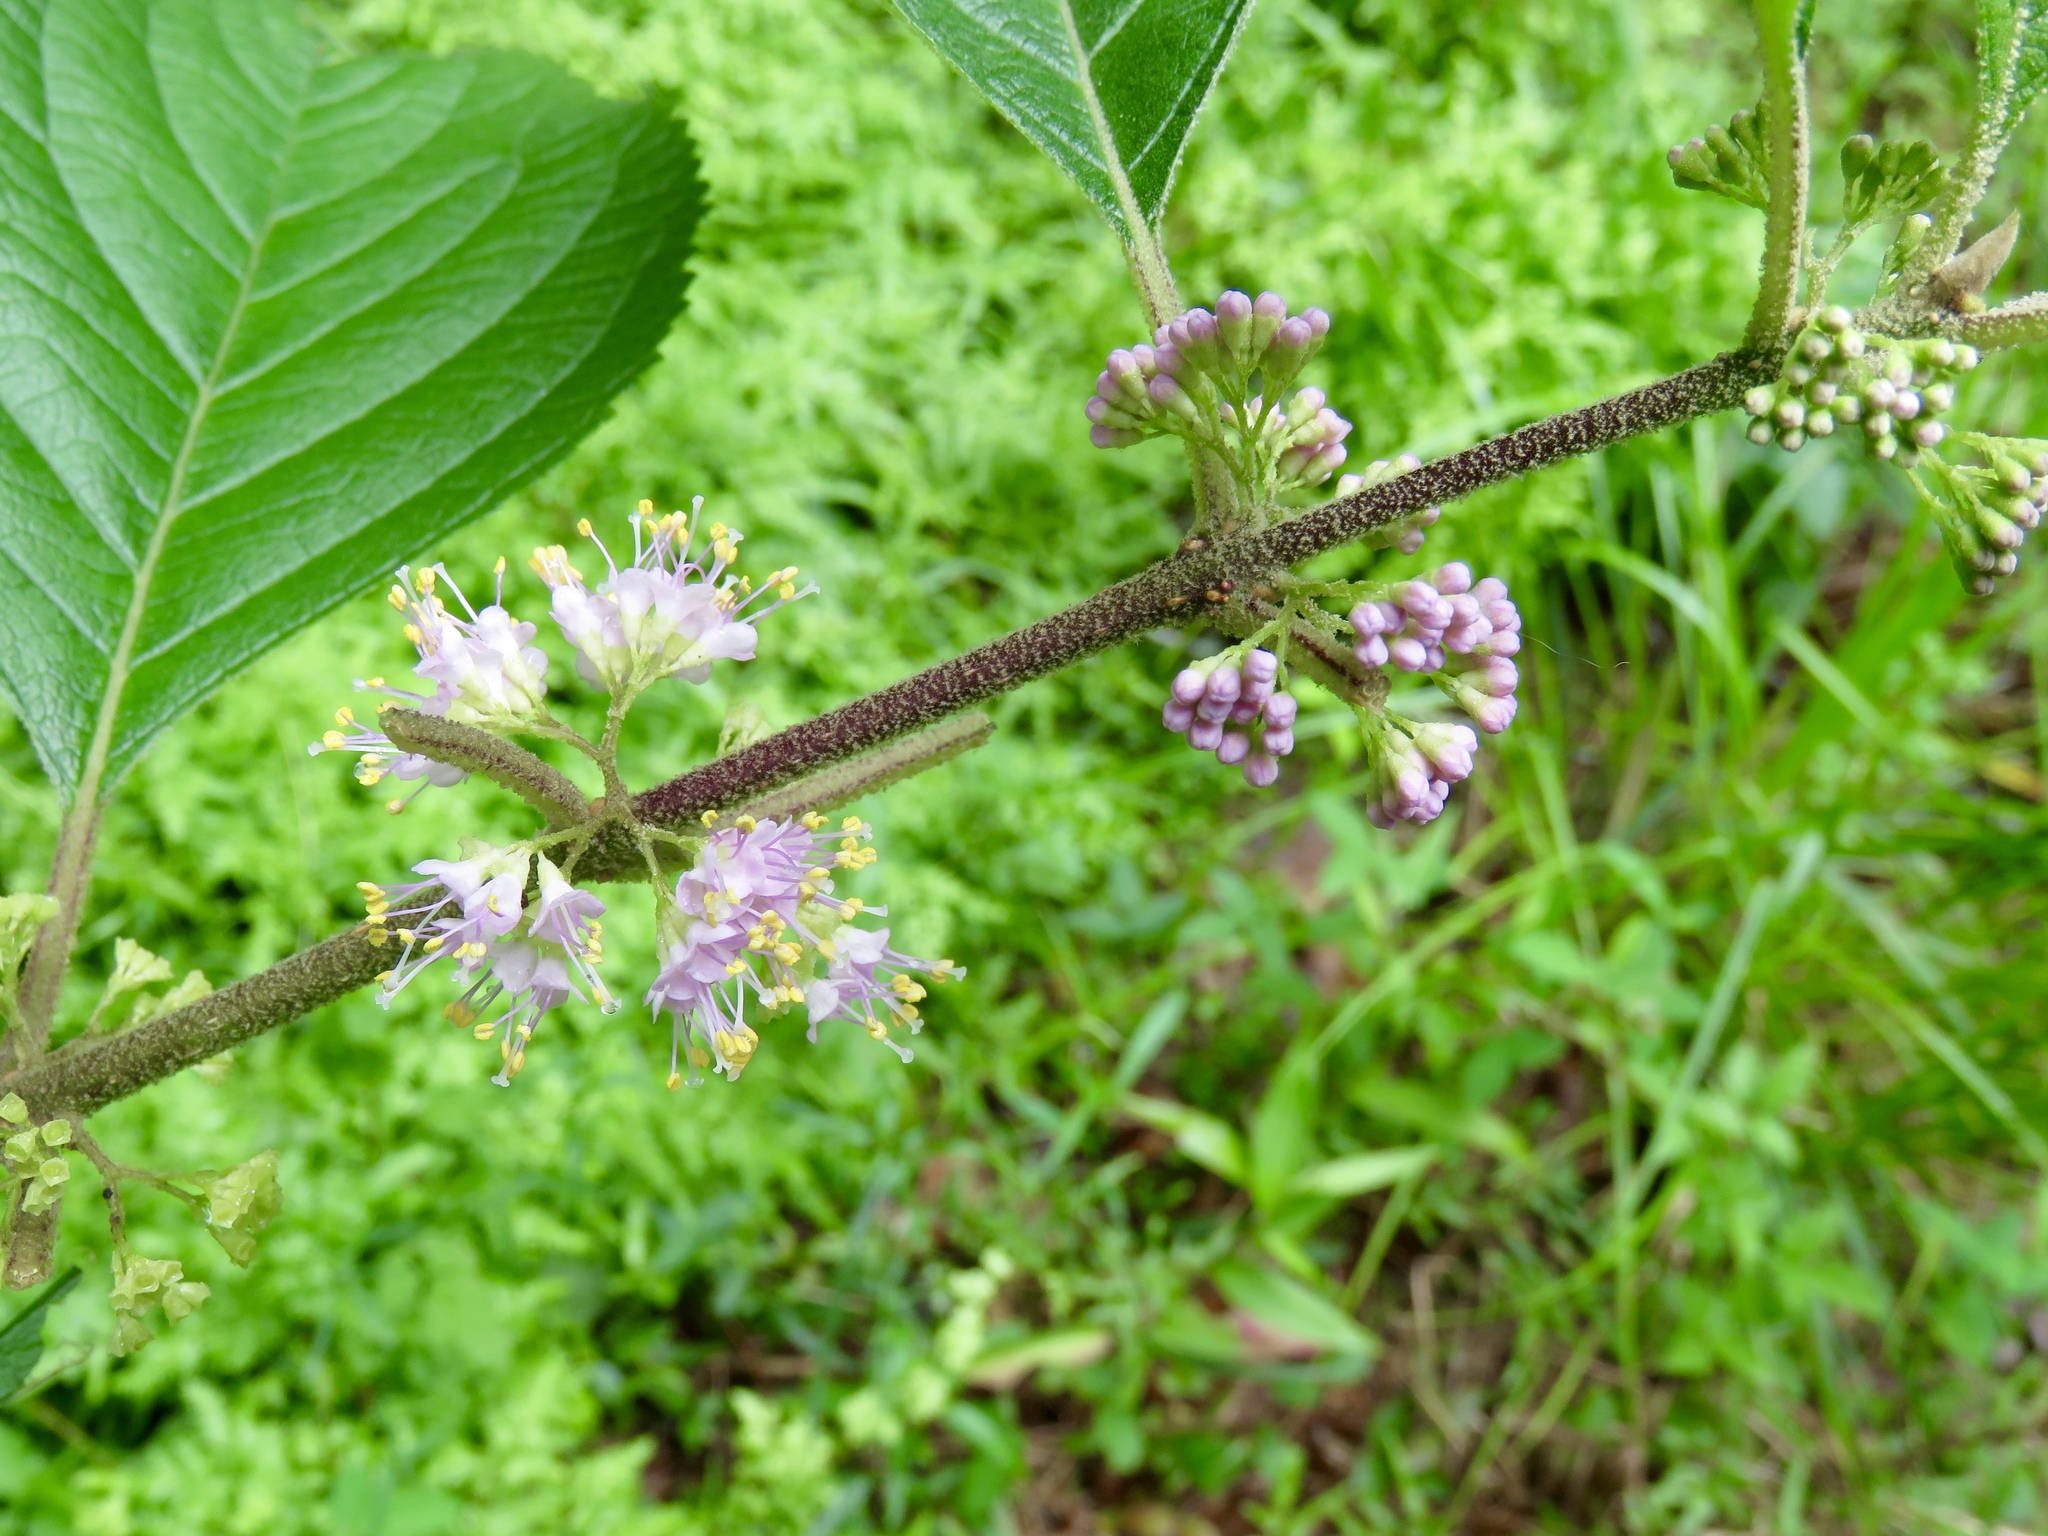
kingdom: Plantae
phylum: Tracheophyta
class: Magnoliopsida
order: Lamiales
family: Lamiaceae
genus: Callicarpa
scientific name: Callicarpa americana
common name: American beautyberry
